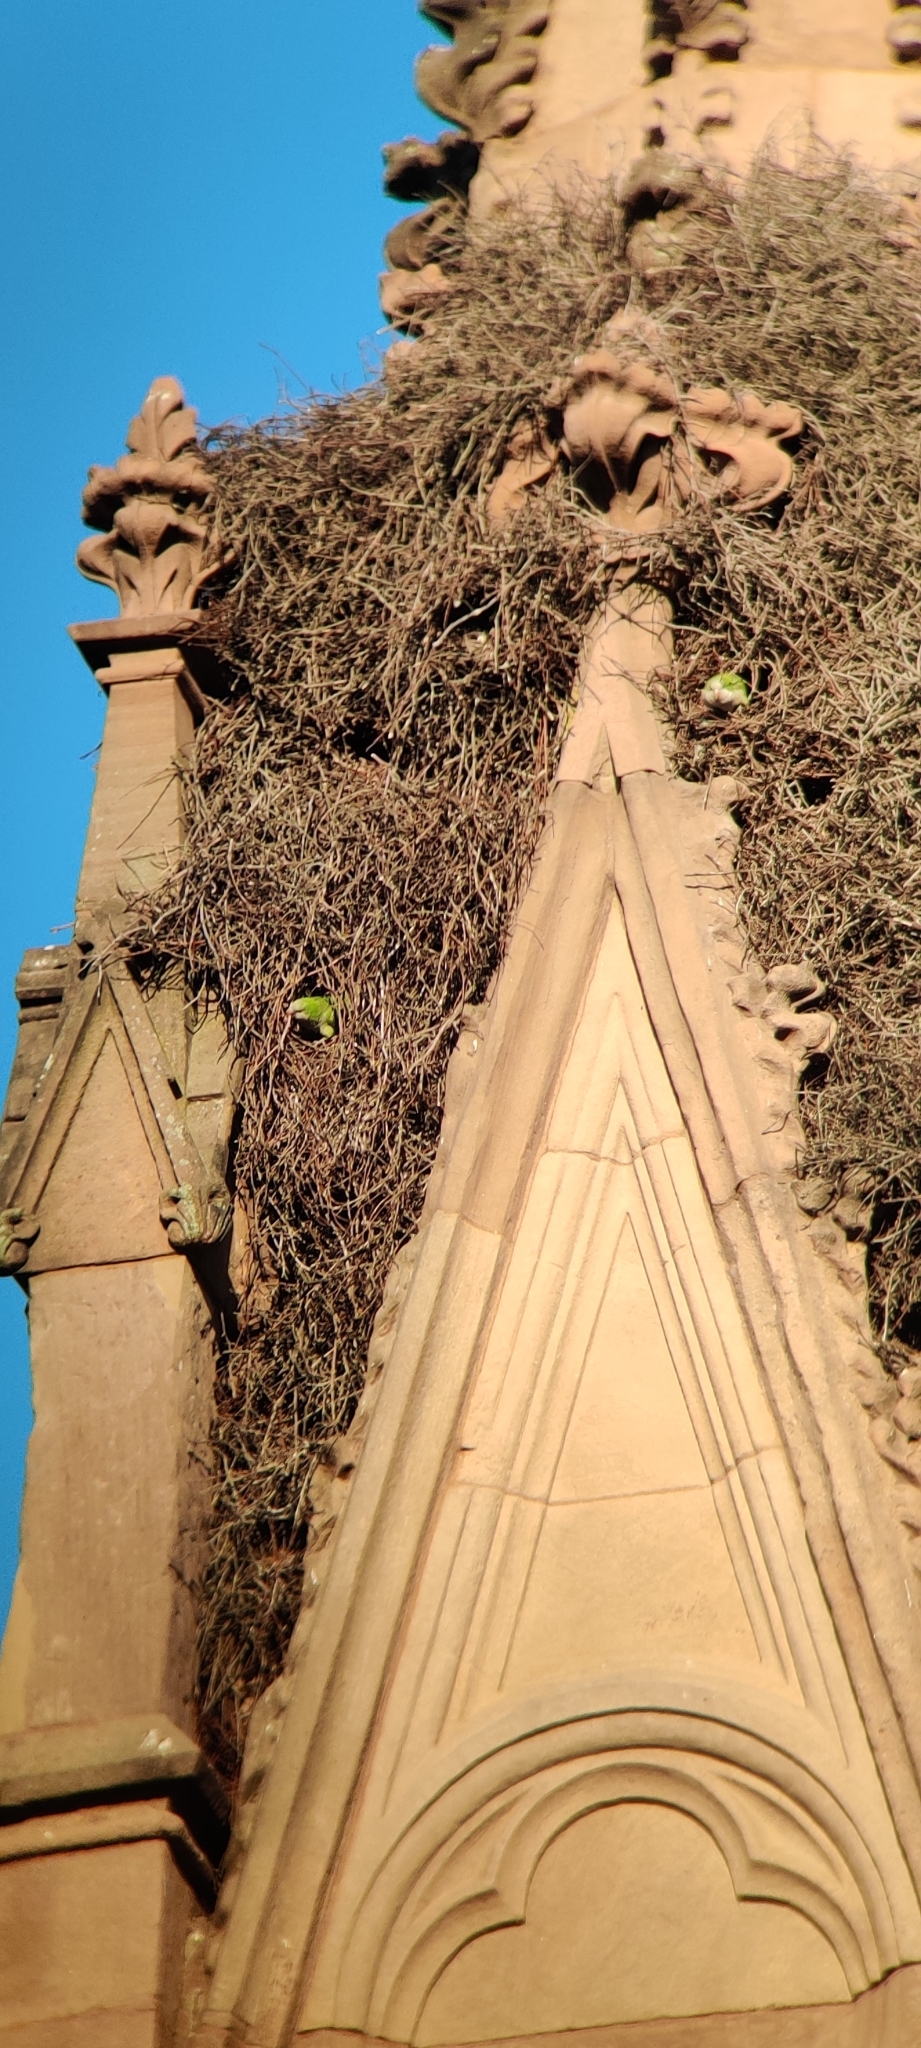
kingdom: Animalia
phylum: Chordata
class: Aves
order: Psittaciformes
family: Psittacidae
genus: Myiopsitta
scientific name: Myiopsitta monachus
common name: Monk parakeet
